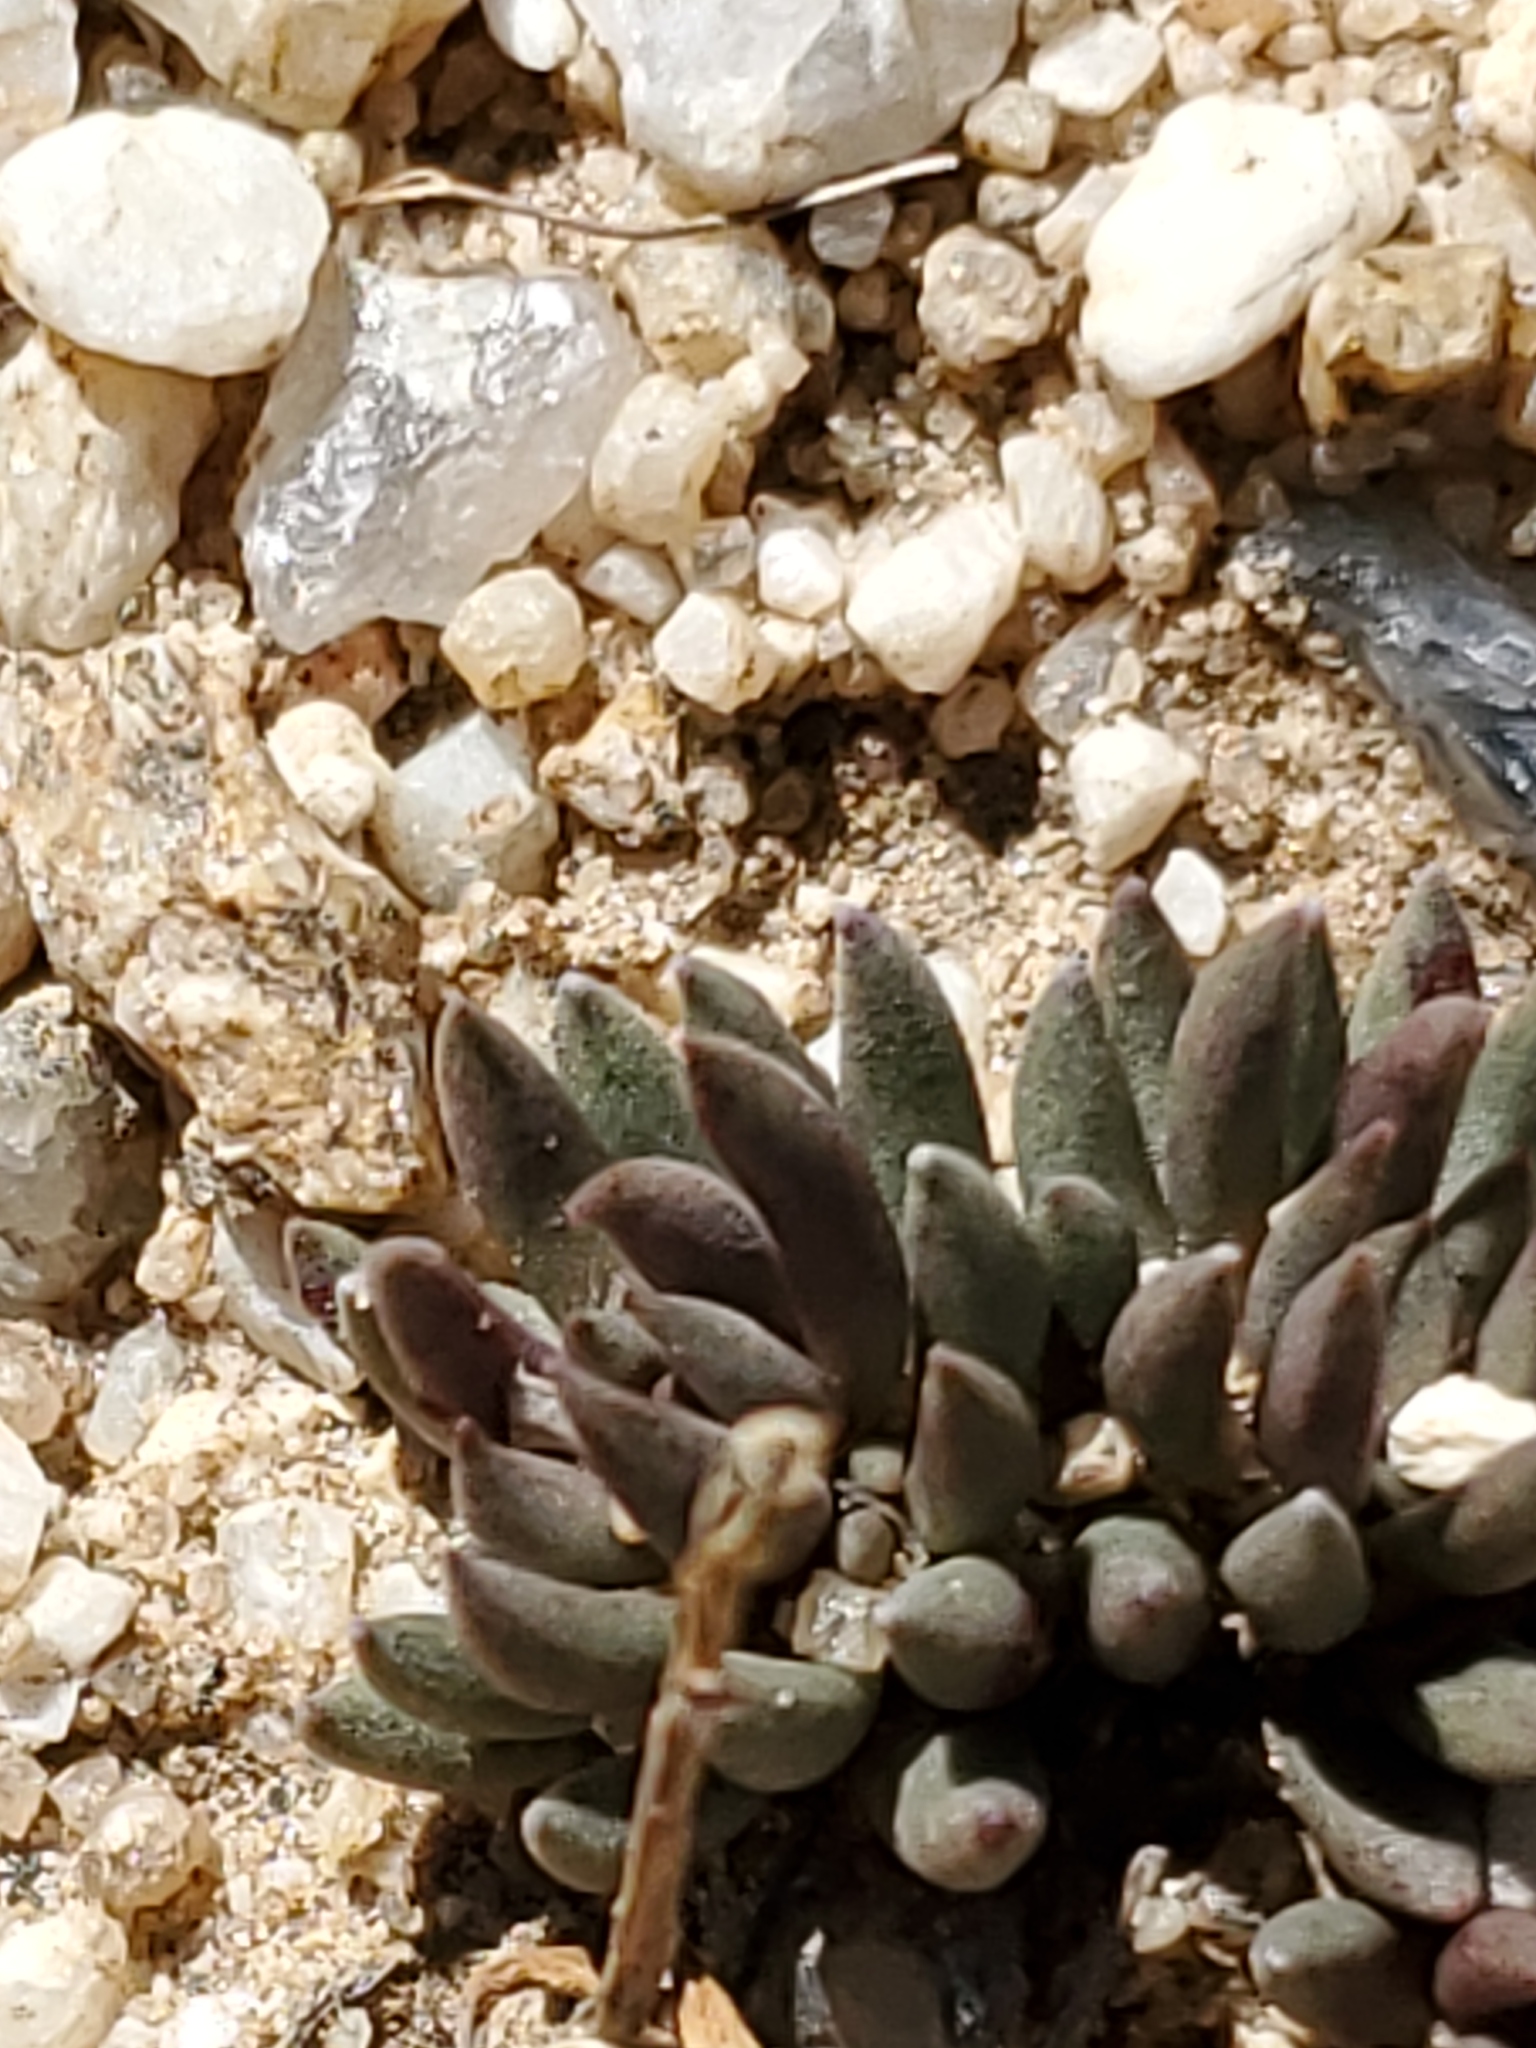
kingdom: Plantae
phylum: Tracheophyta
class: Magnoliopsida
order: Saxifragales
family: Crassulaceae
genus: Sedum
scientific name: Sedum lanceolatum
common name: Common stonecrop
